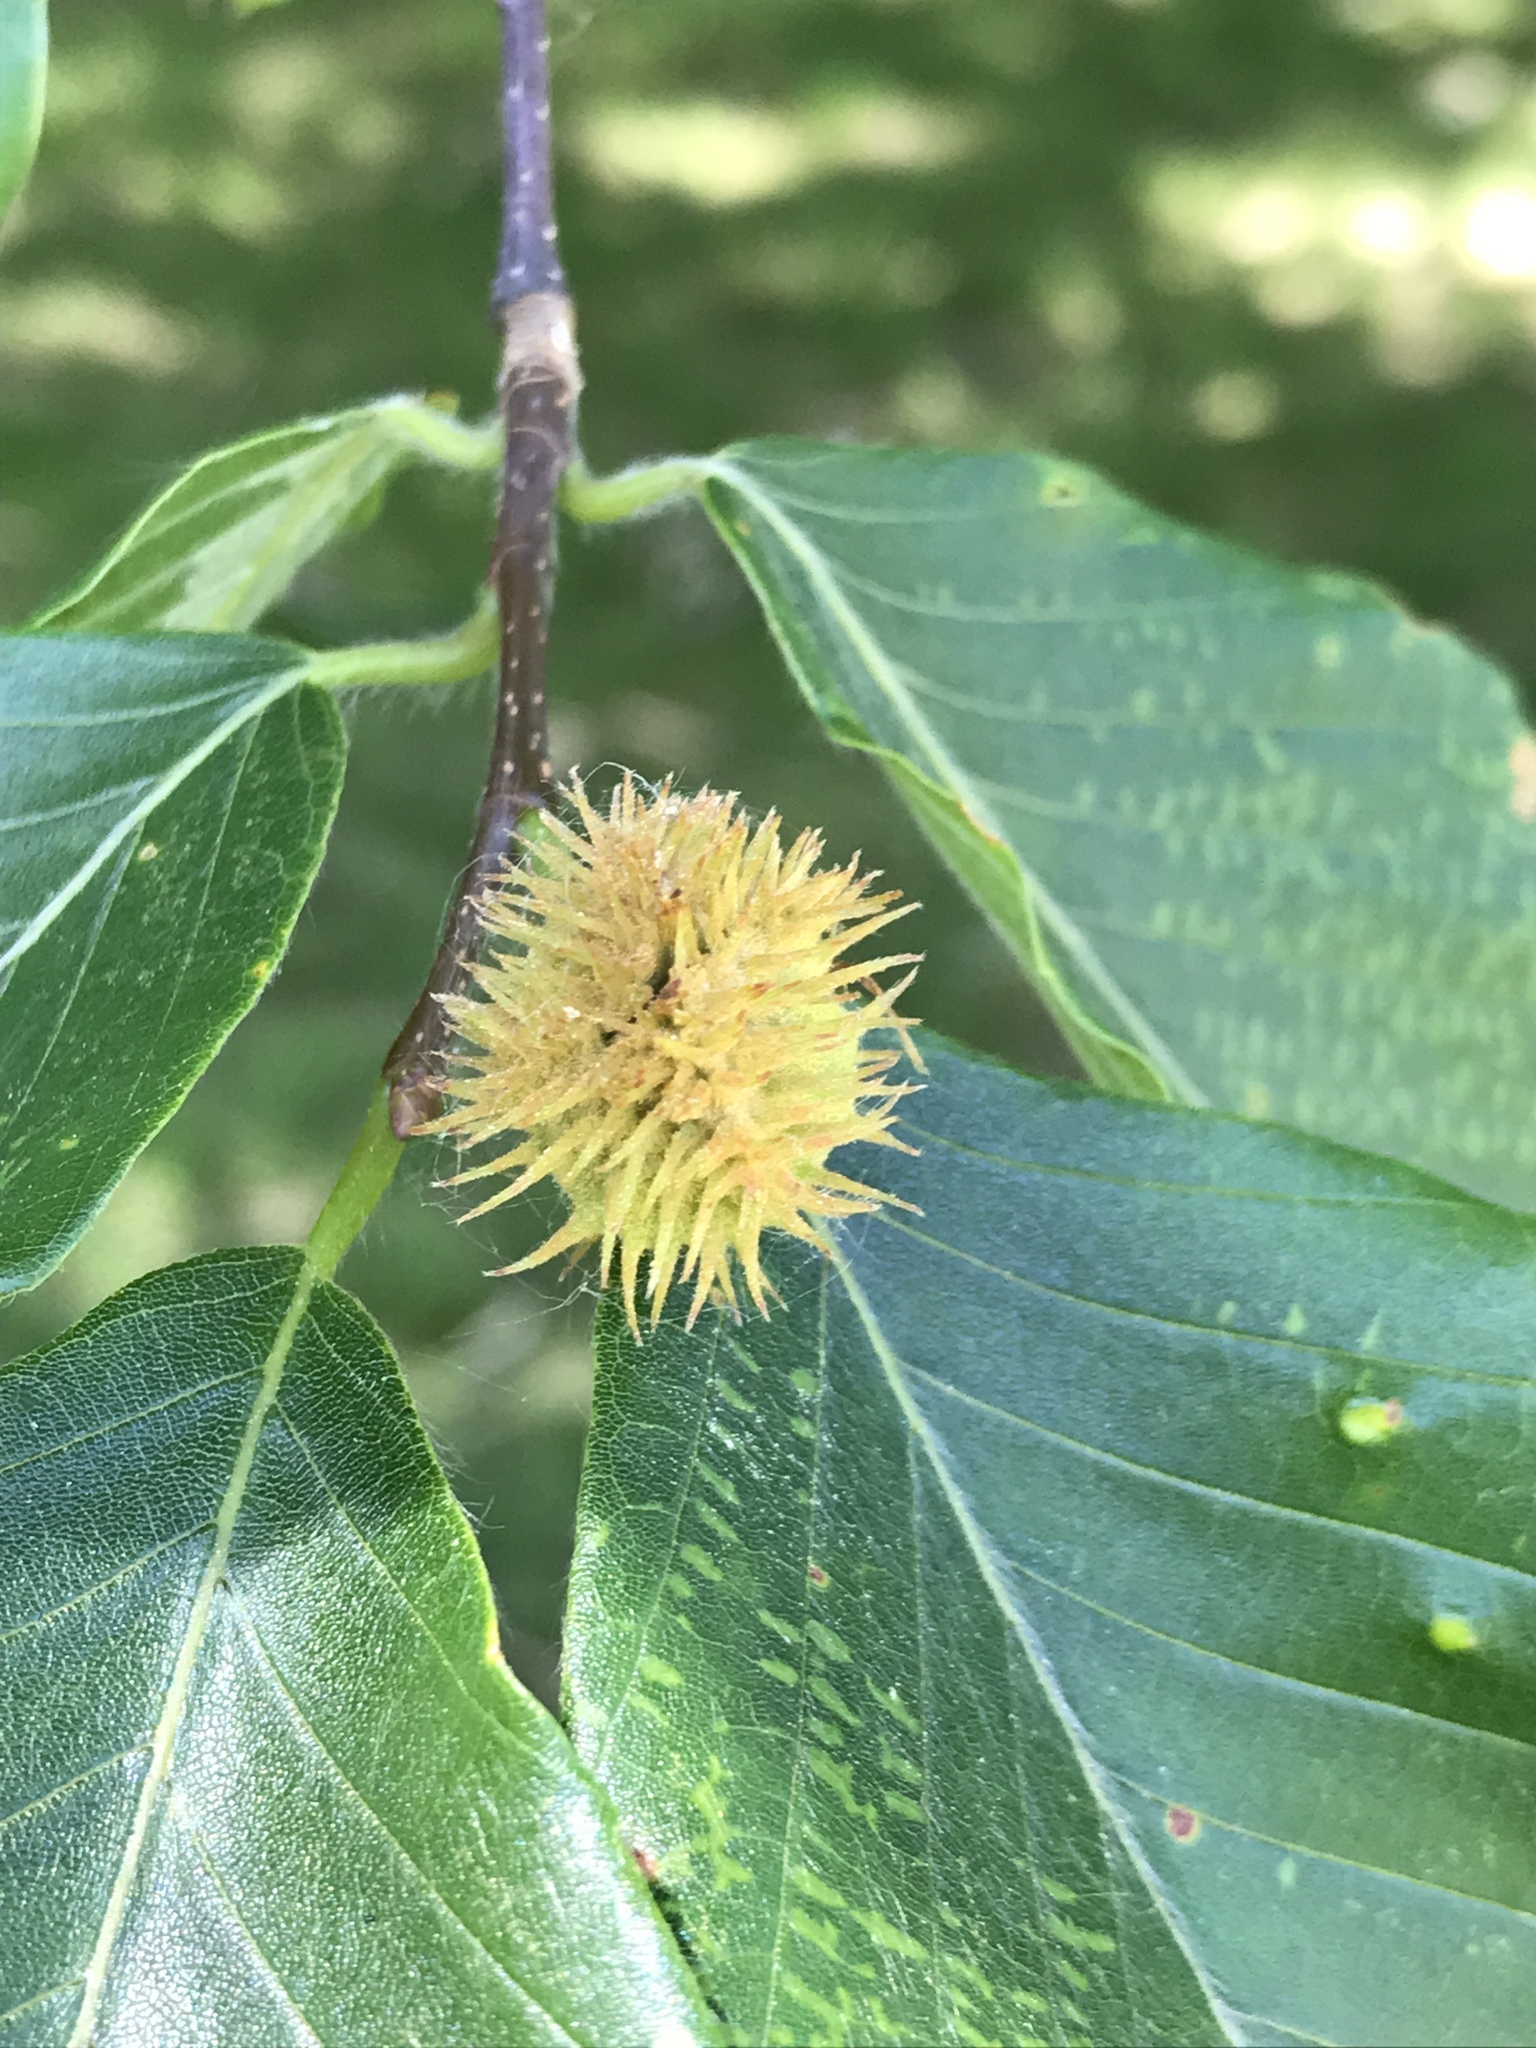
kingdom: Plantae
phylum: Tracheophyta
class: Magnoliopsida
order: Fagales
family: Fagaceae
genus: Fagus
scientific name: Fagus grandifolia
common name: American beech
